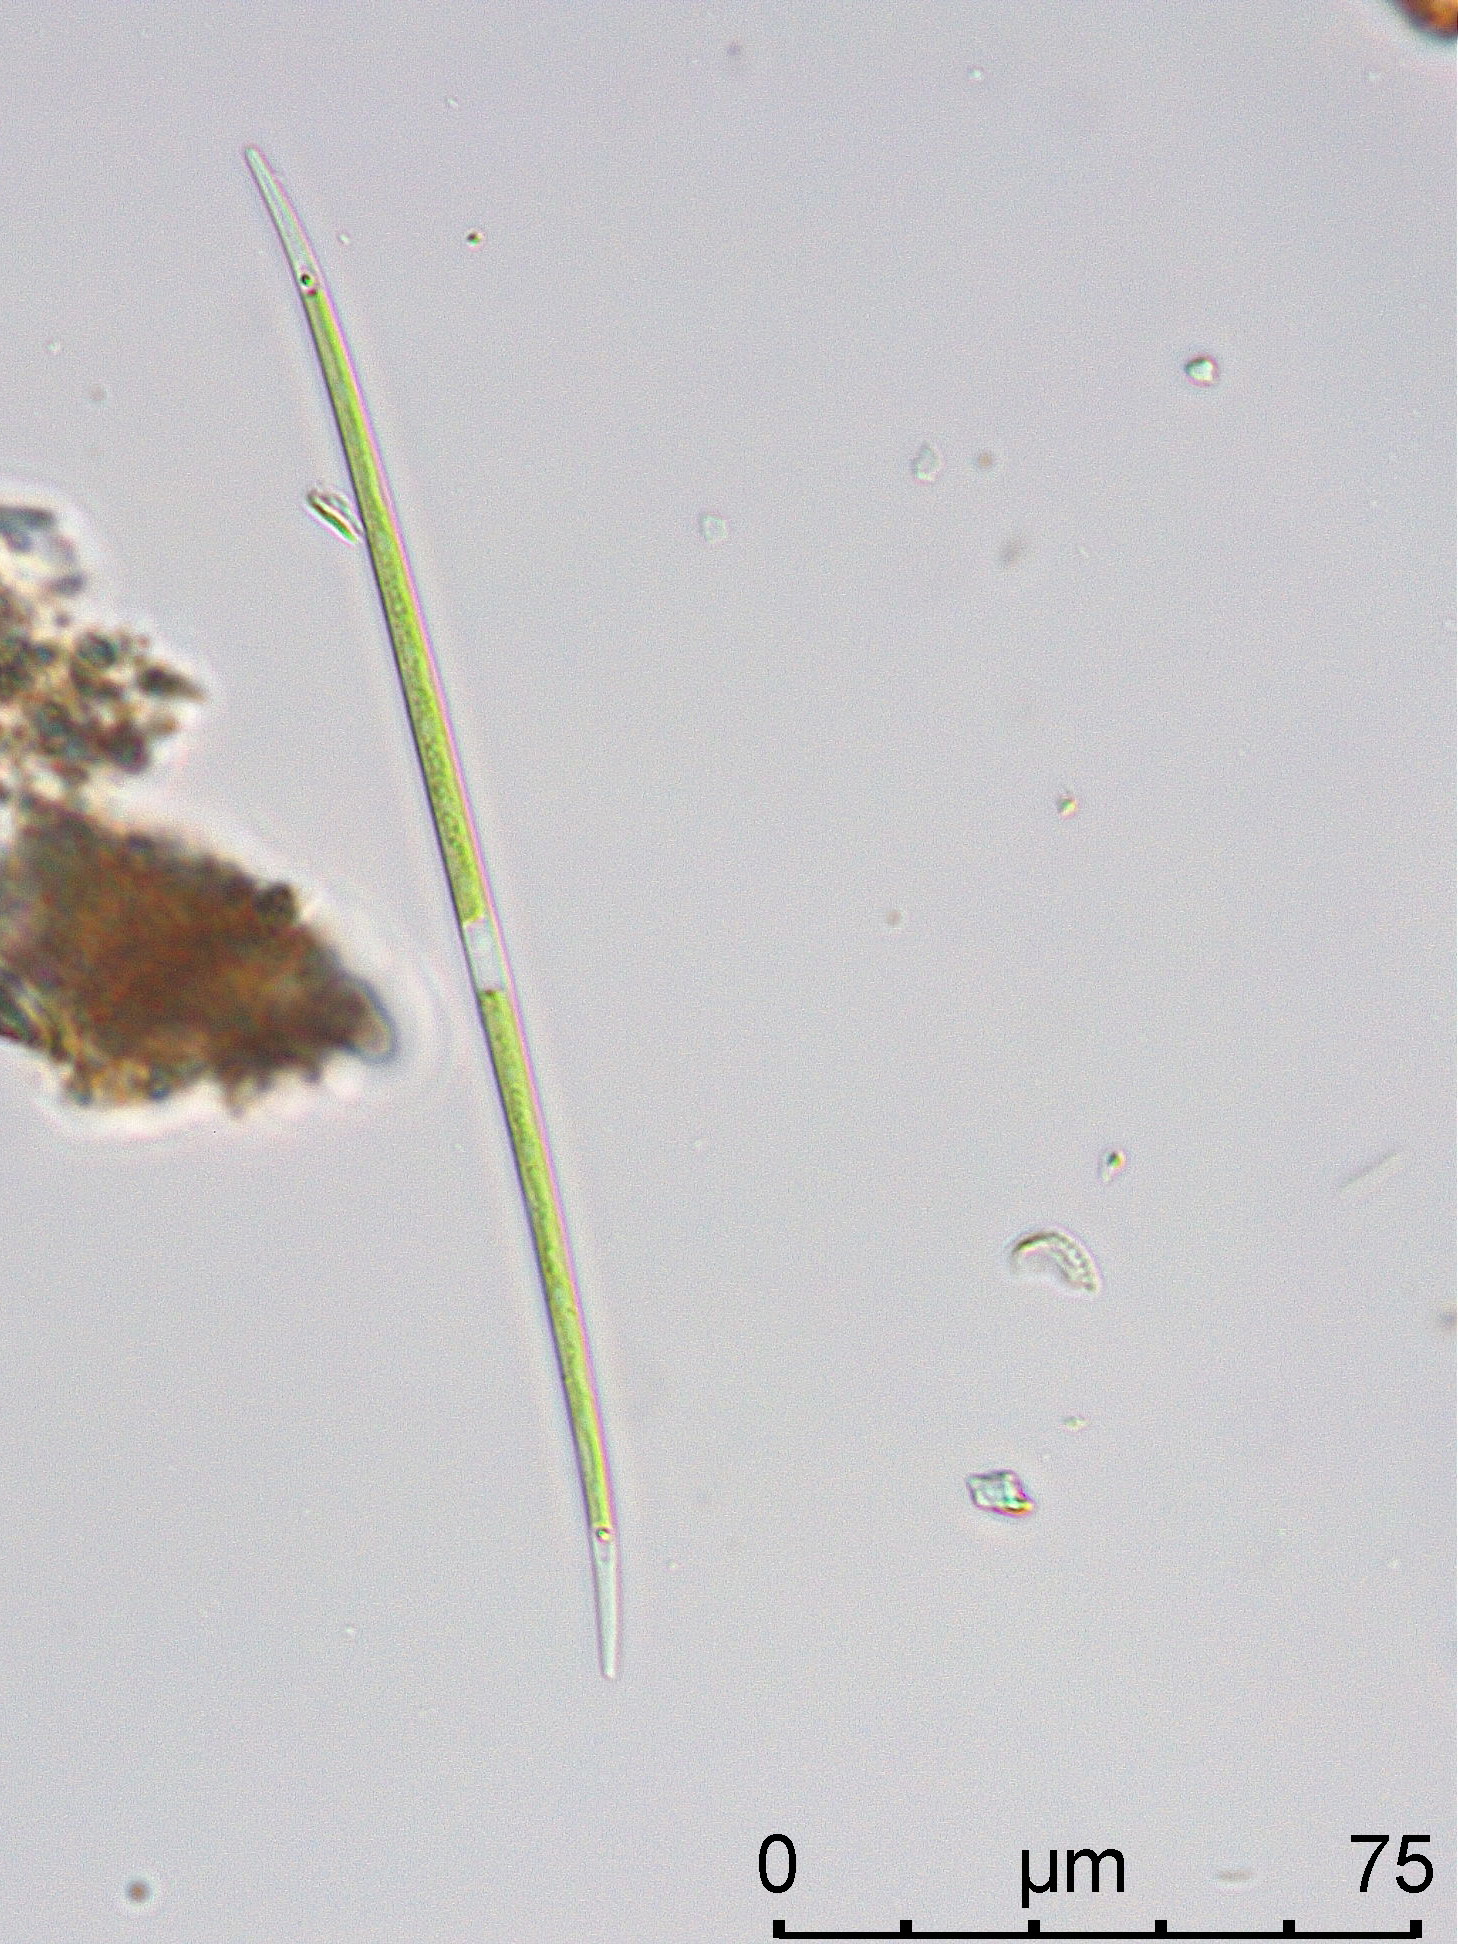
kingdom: Plantae
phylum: Charophyta
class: Zygnematophyceae
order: Zygnematales
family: Closteriaceae
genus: Closterium
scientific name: Closterium limneticum
